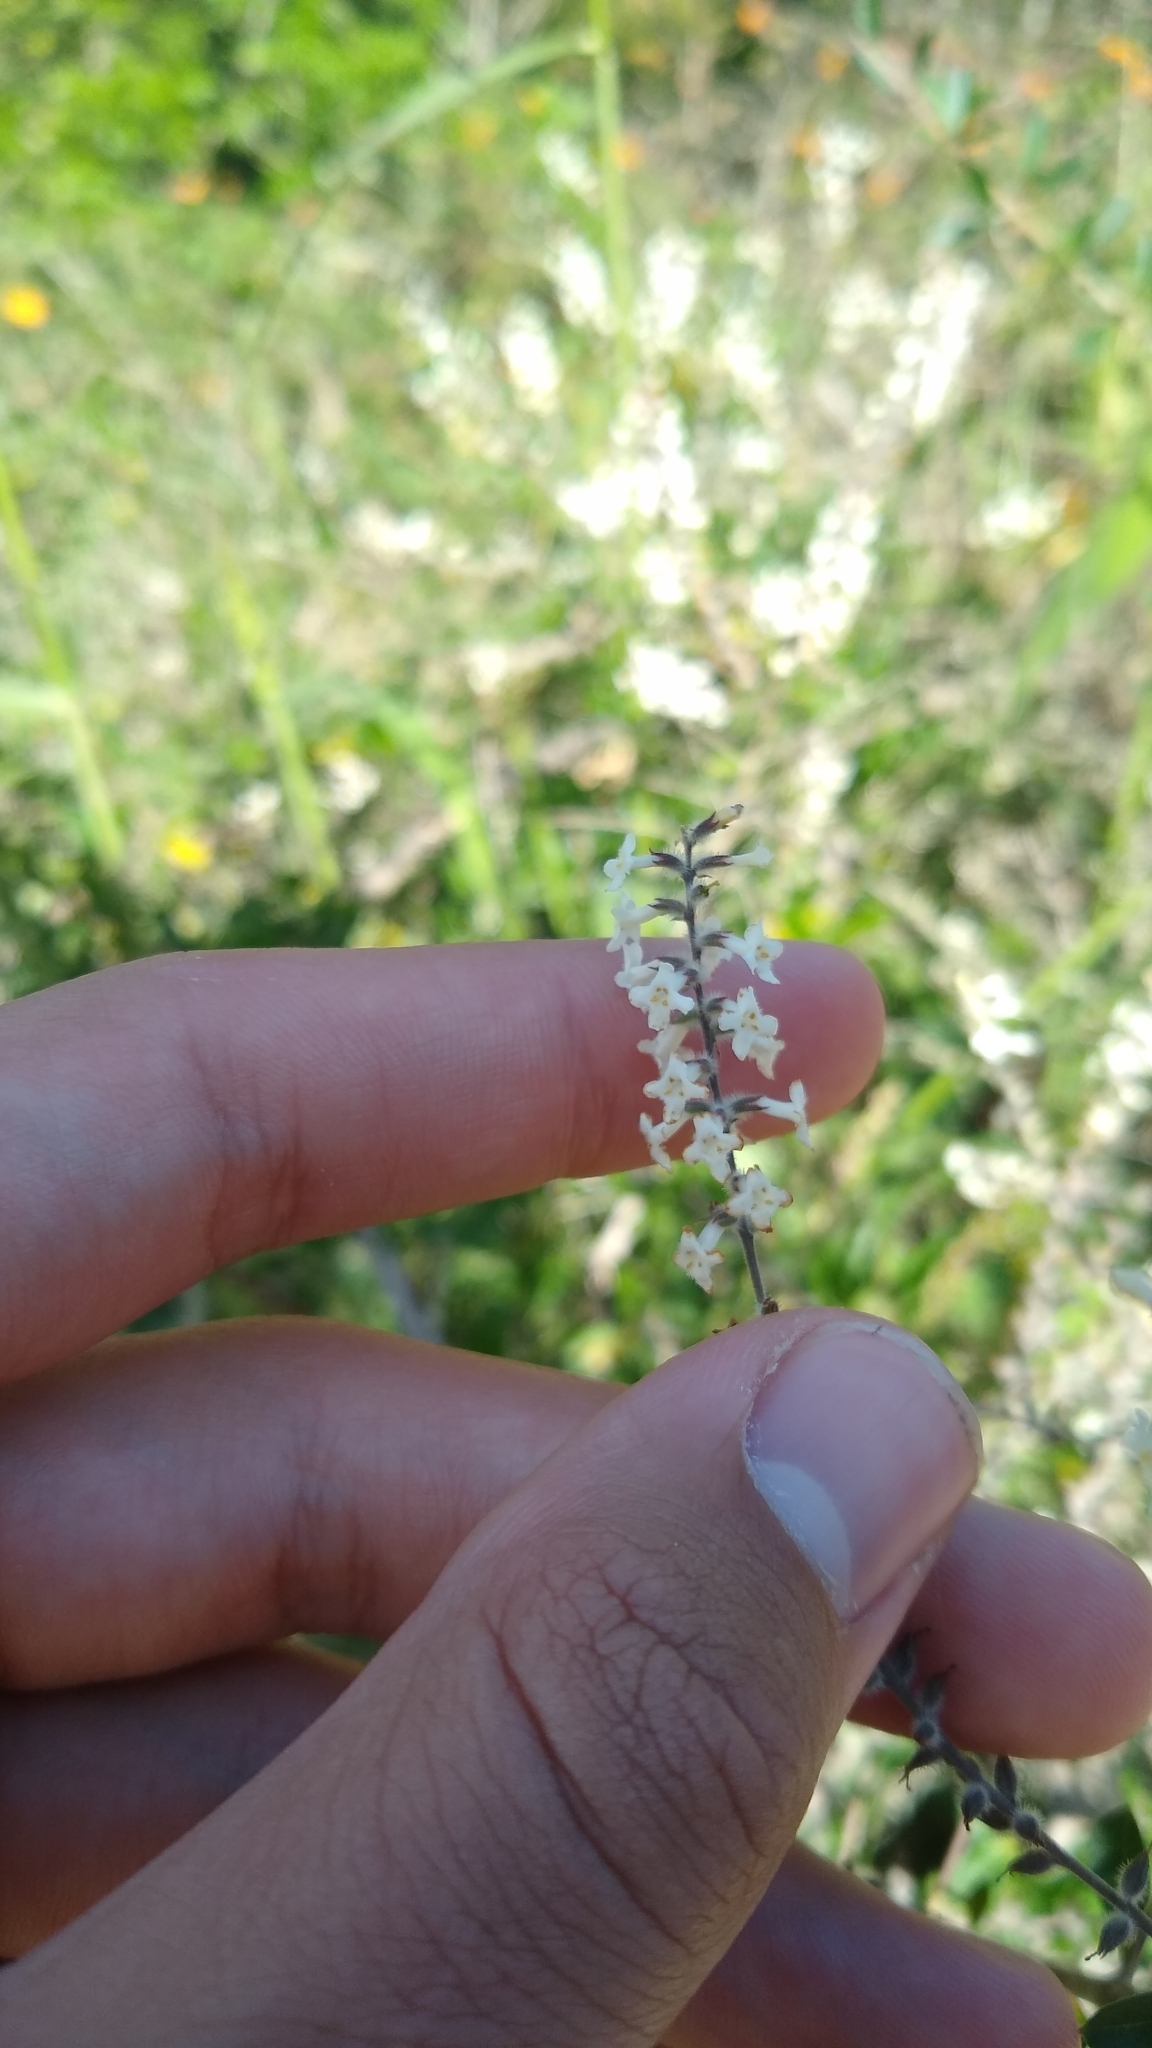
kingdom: Plantae
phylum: Tracheophyta
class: Magnoliopsida
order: Lamiales
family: Verbenaceae
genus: Aloysia
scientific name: Aloysia gratissima
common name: Common bee-brush
